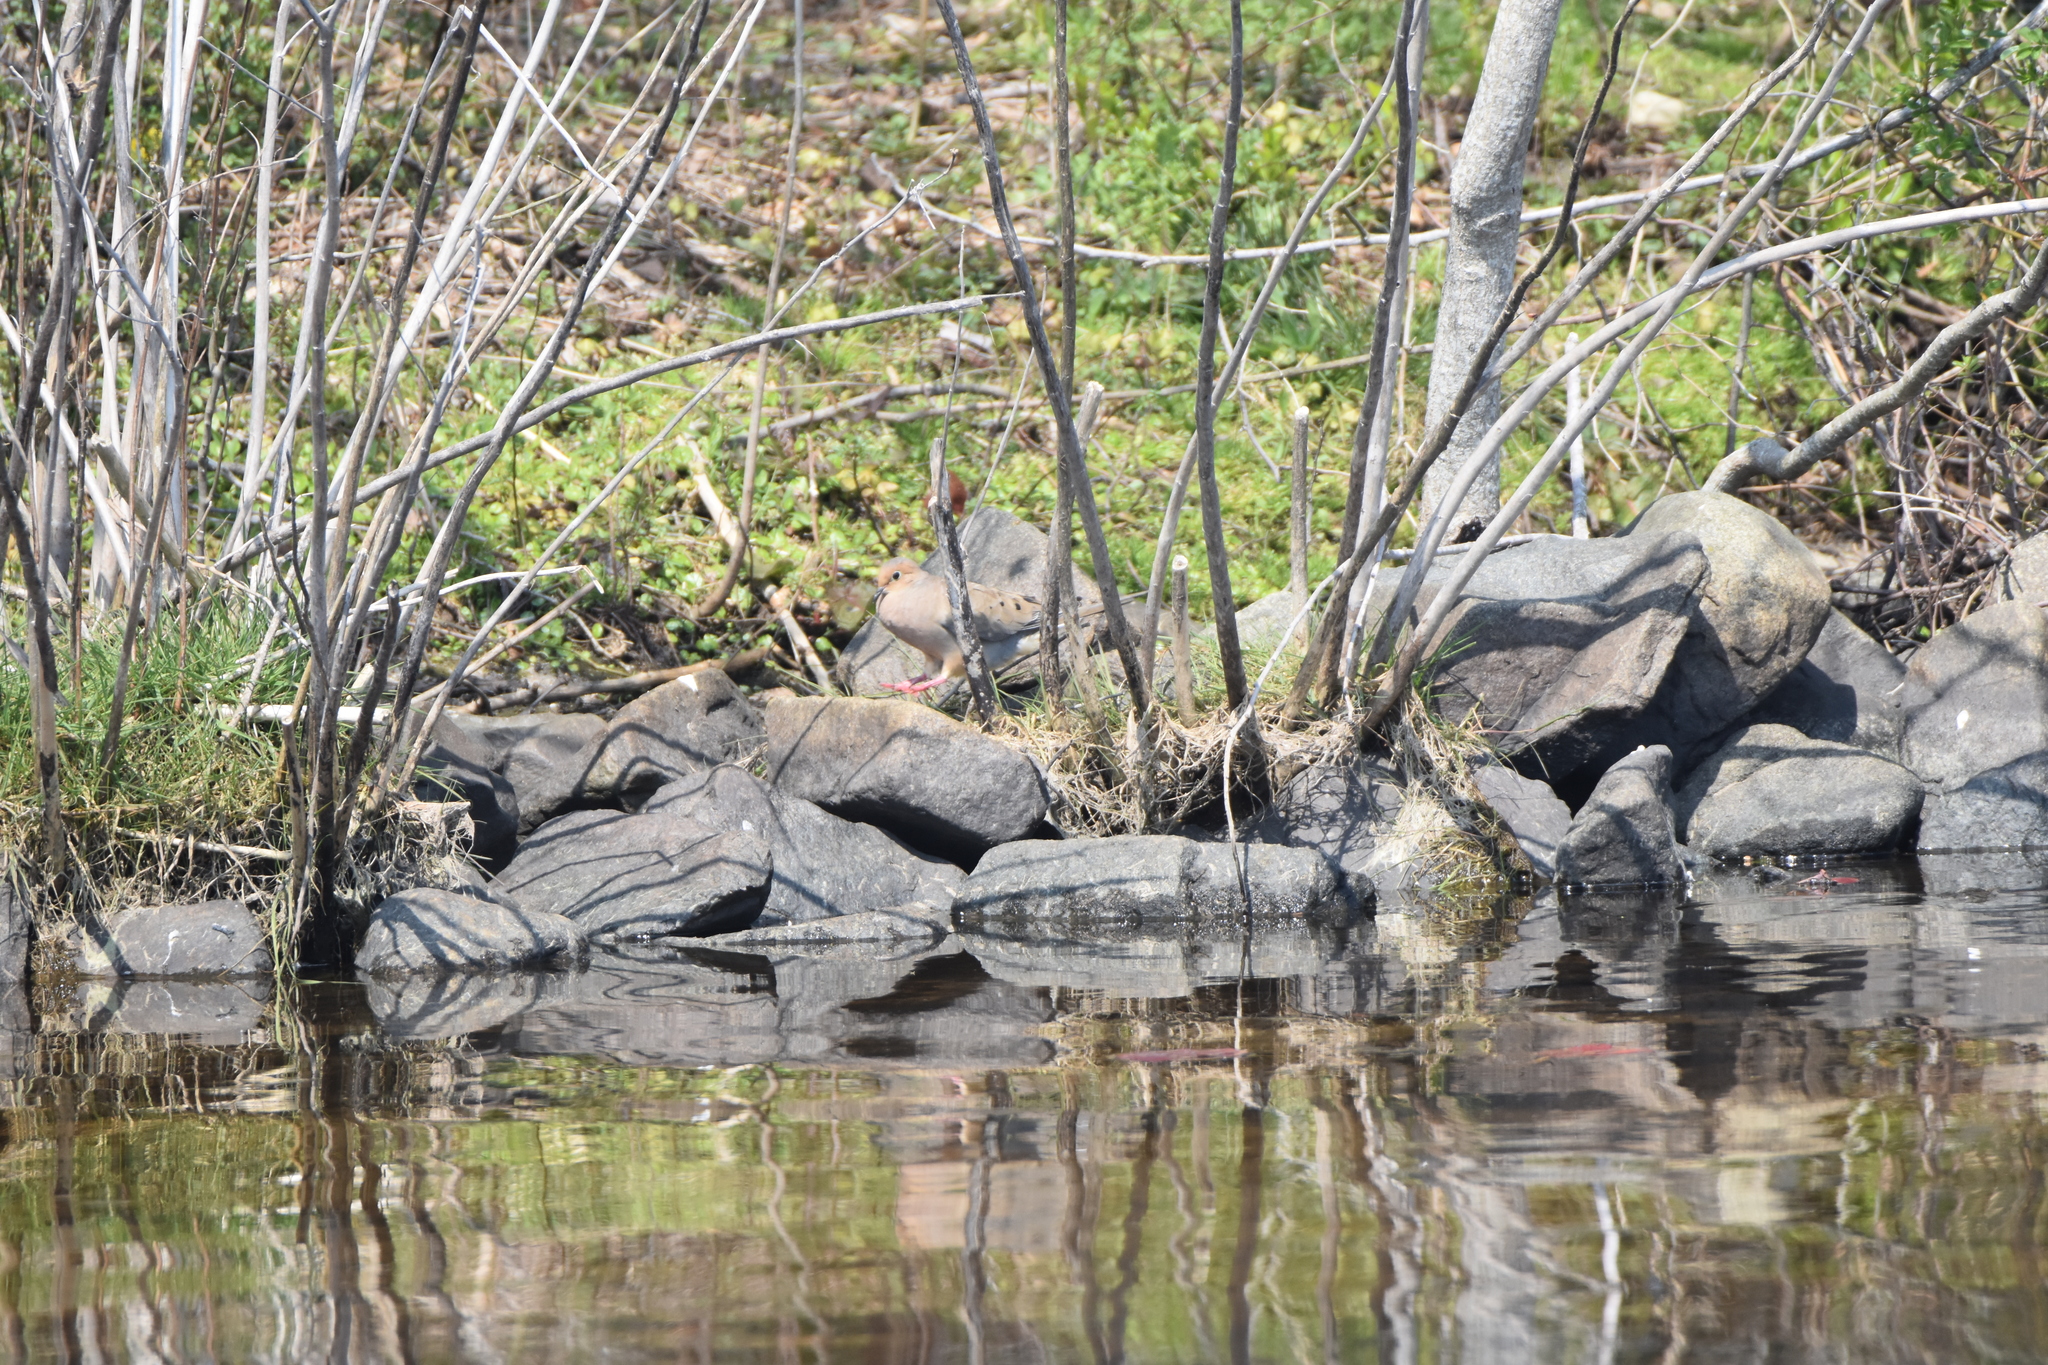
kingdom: Animalia
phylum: Chordata
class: Aves
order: Columbiformes
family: Columbidae
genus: Zenaida
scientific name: Zenaida macroura
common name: Mourning dove
